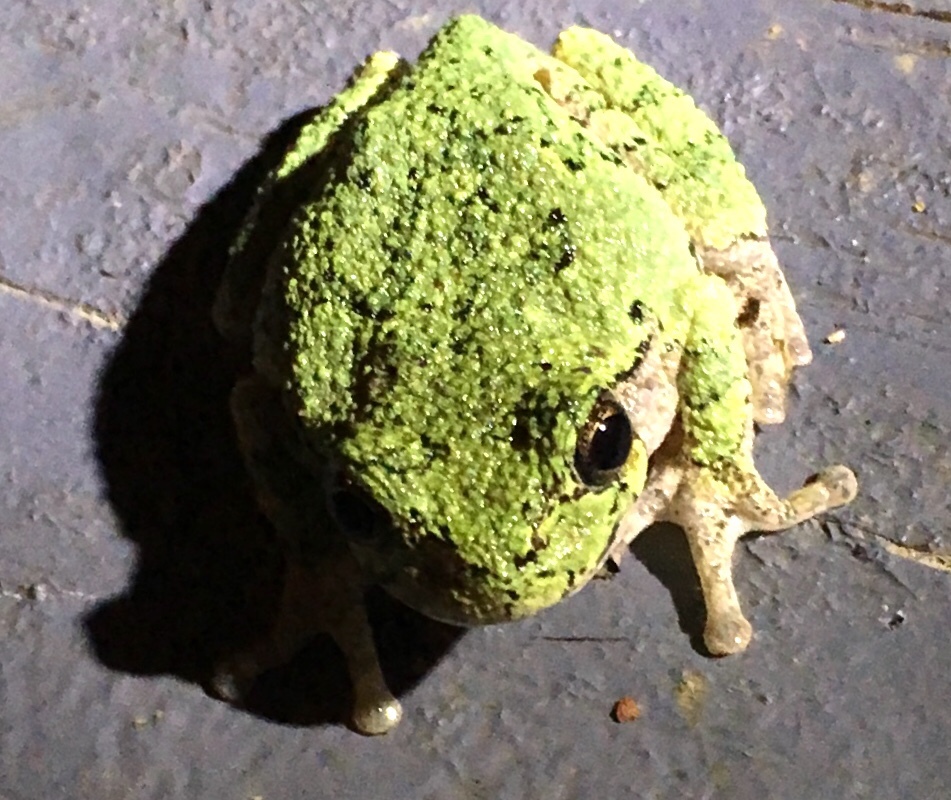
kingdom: Animalia
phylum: Chordata
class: Amphibia
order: Anura
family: Hylidae
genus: Hyla
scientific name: Hyla
